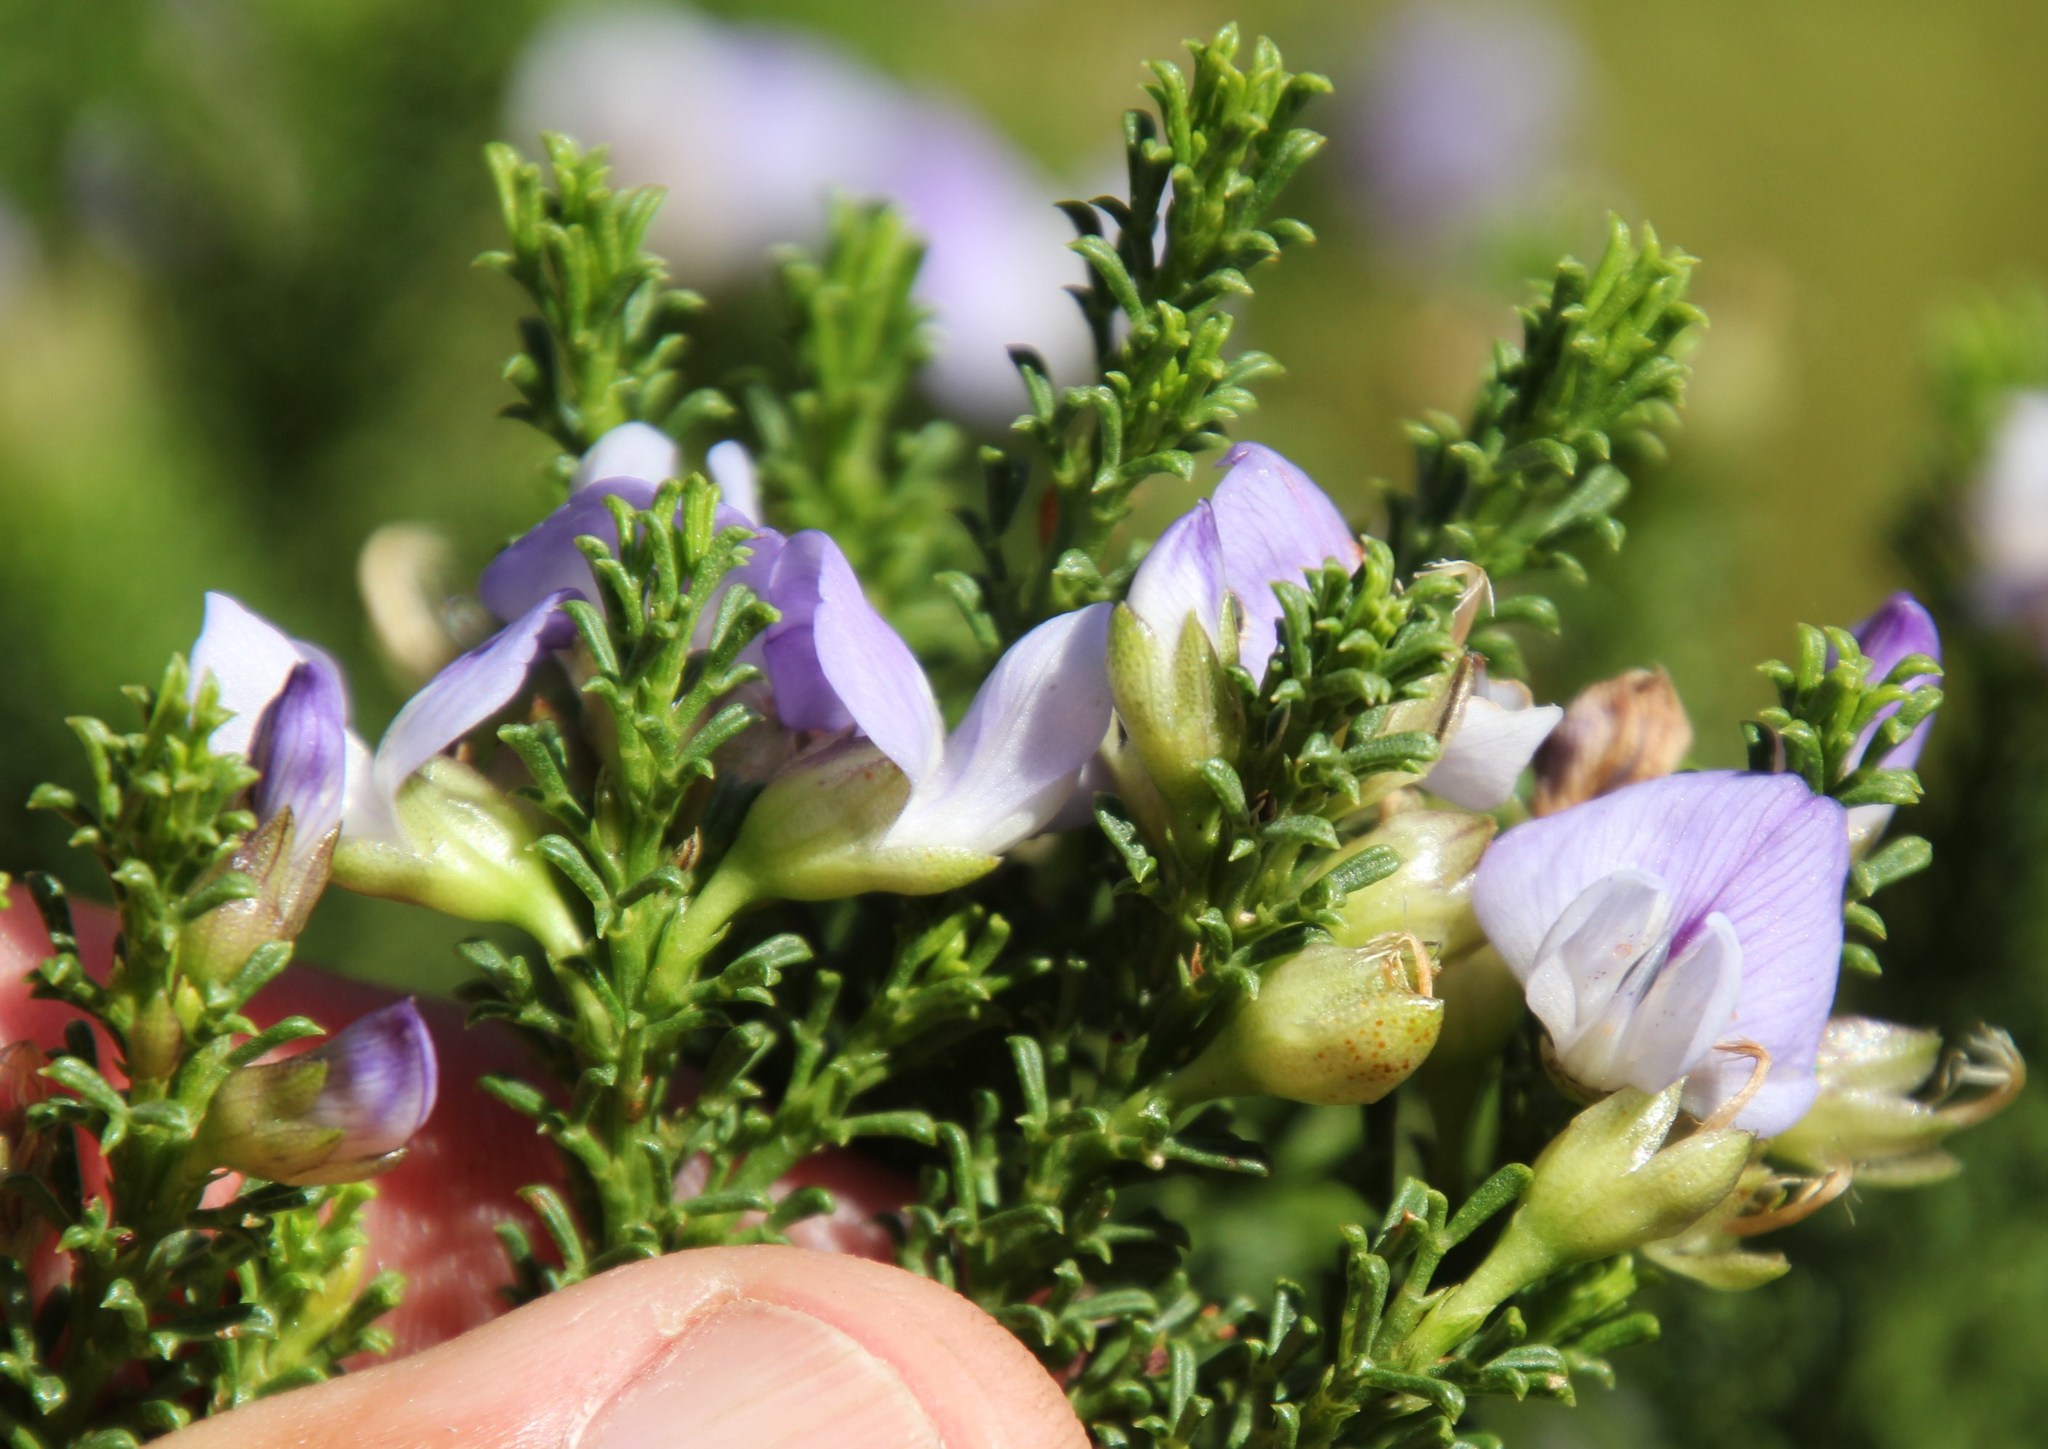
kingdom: Plantae
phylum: Tracheophyta
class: Magnoliopsida
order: Fabales
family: Fabaceae
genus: Psoralea
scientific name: Psoralea aculeata
